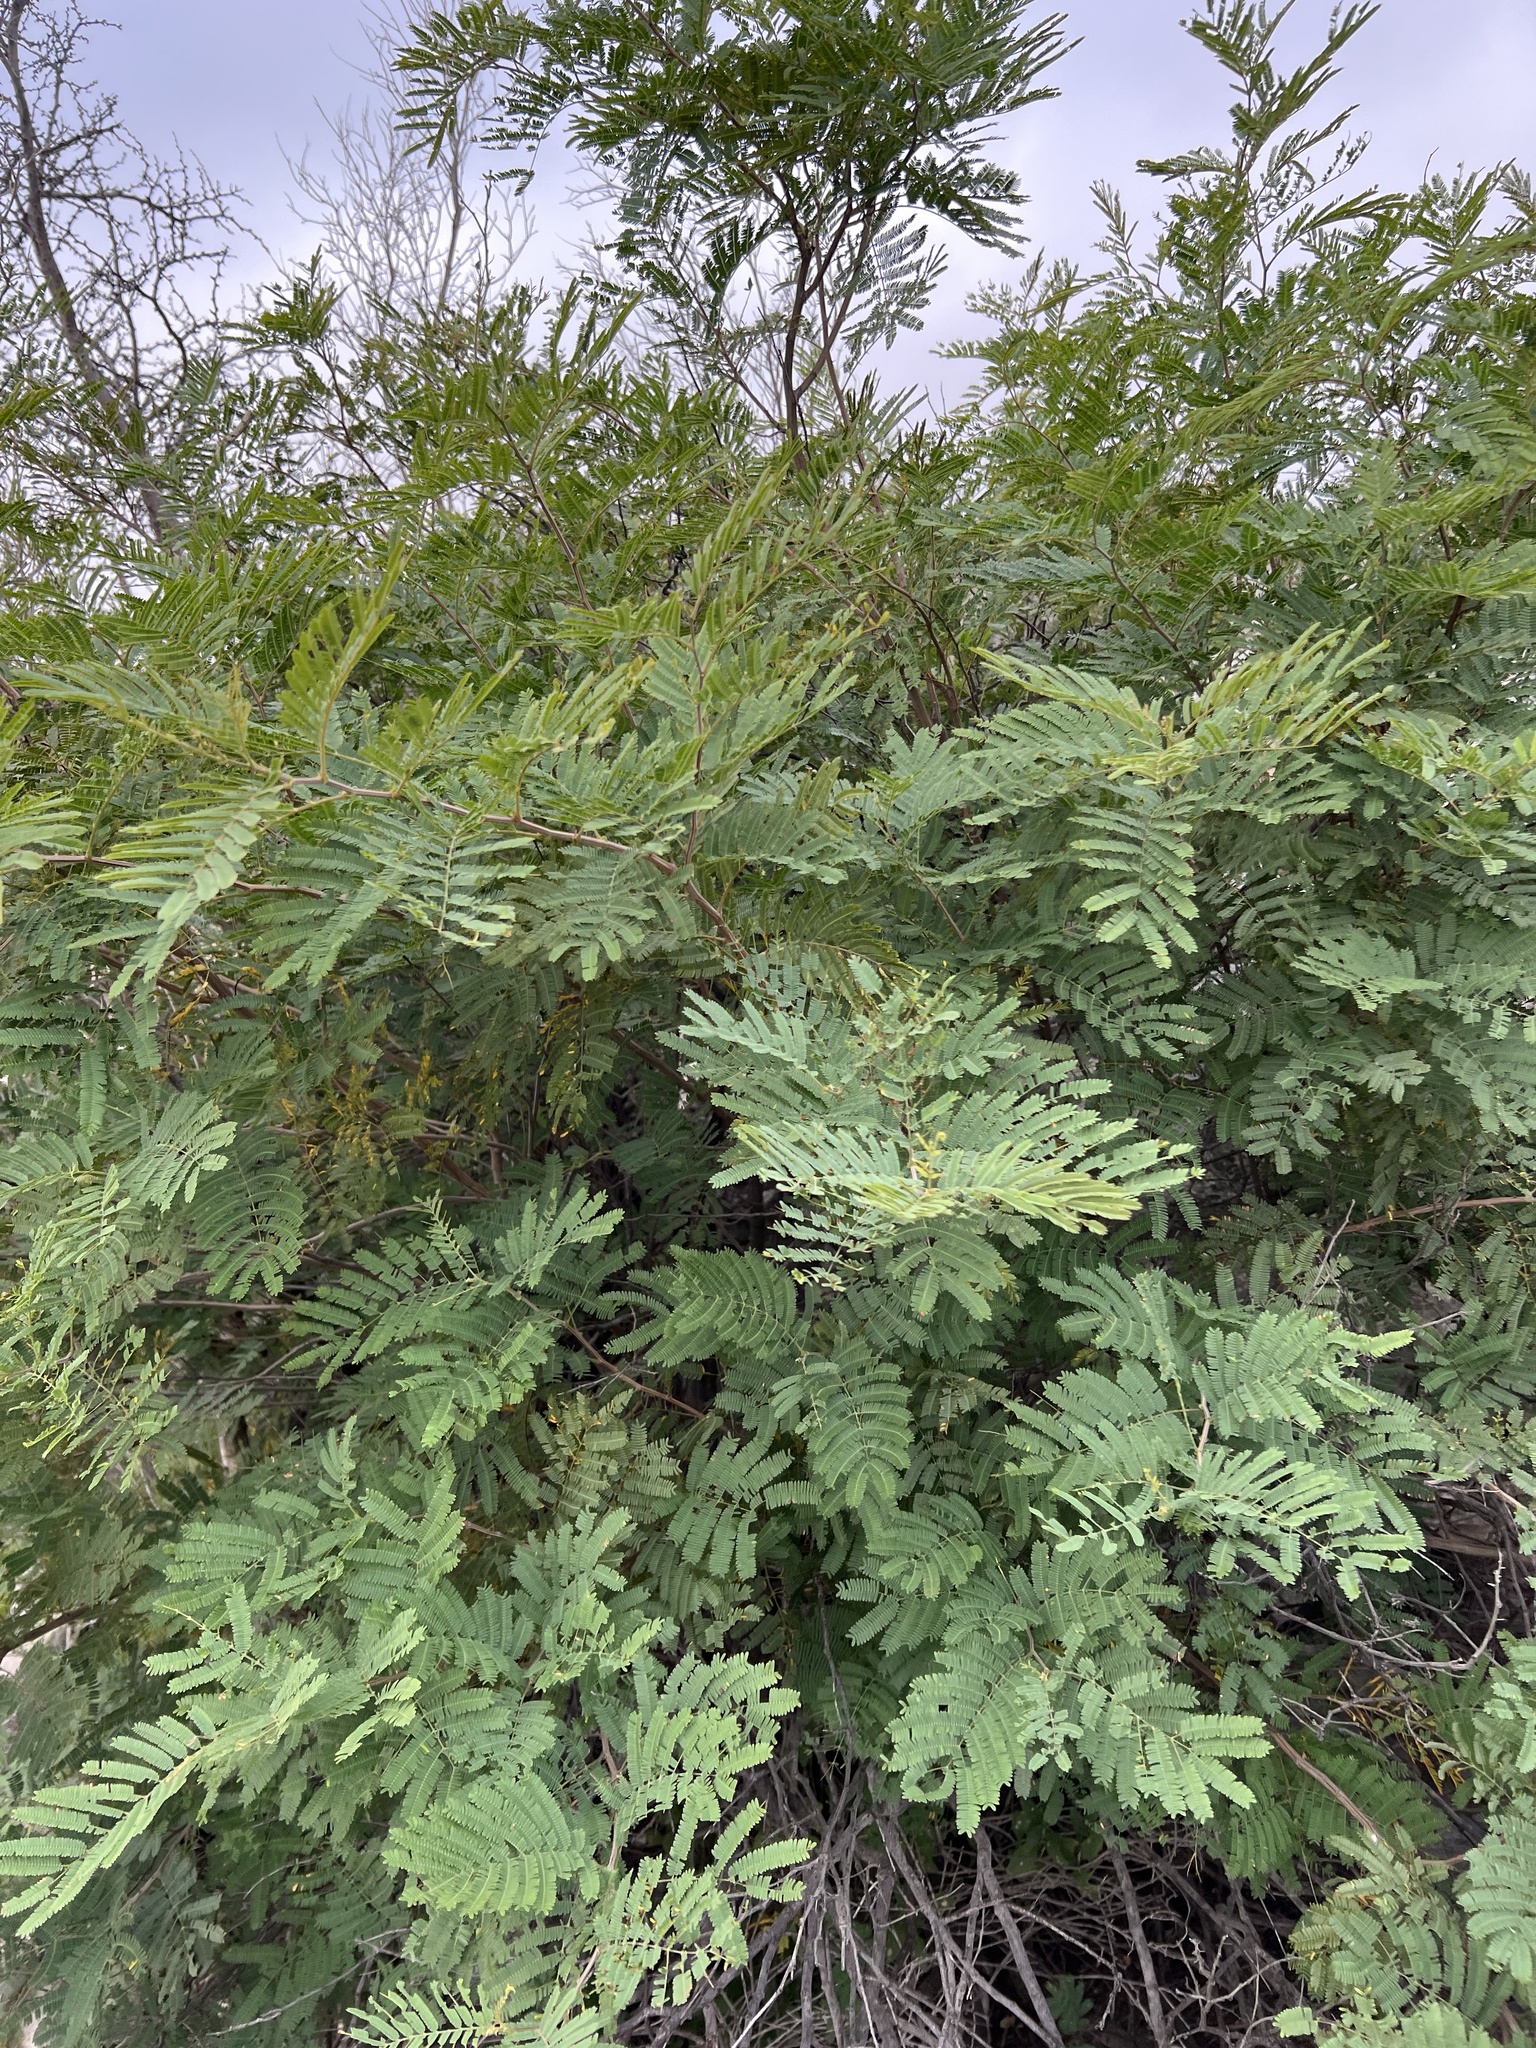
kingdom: Plantae
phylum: Tracheophyta
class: Magnoliopsida
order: Fabales
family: Fabaceae
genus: Senegalia
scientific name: Senegalia berlandieri
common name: Berlandier acacia
